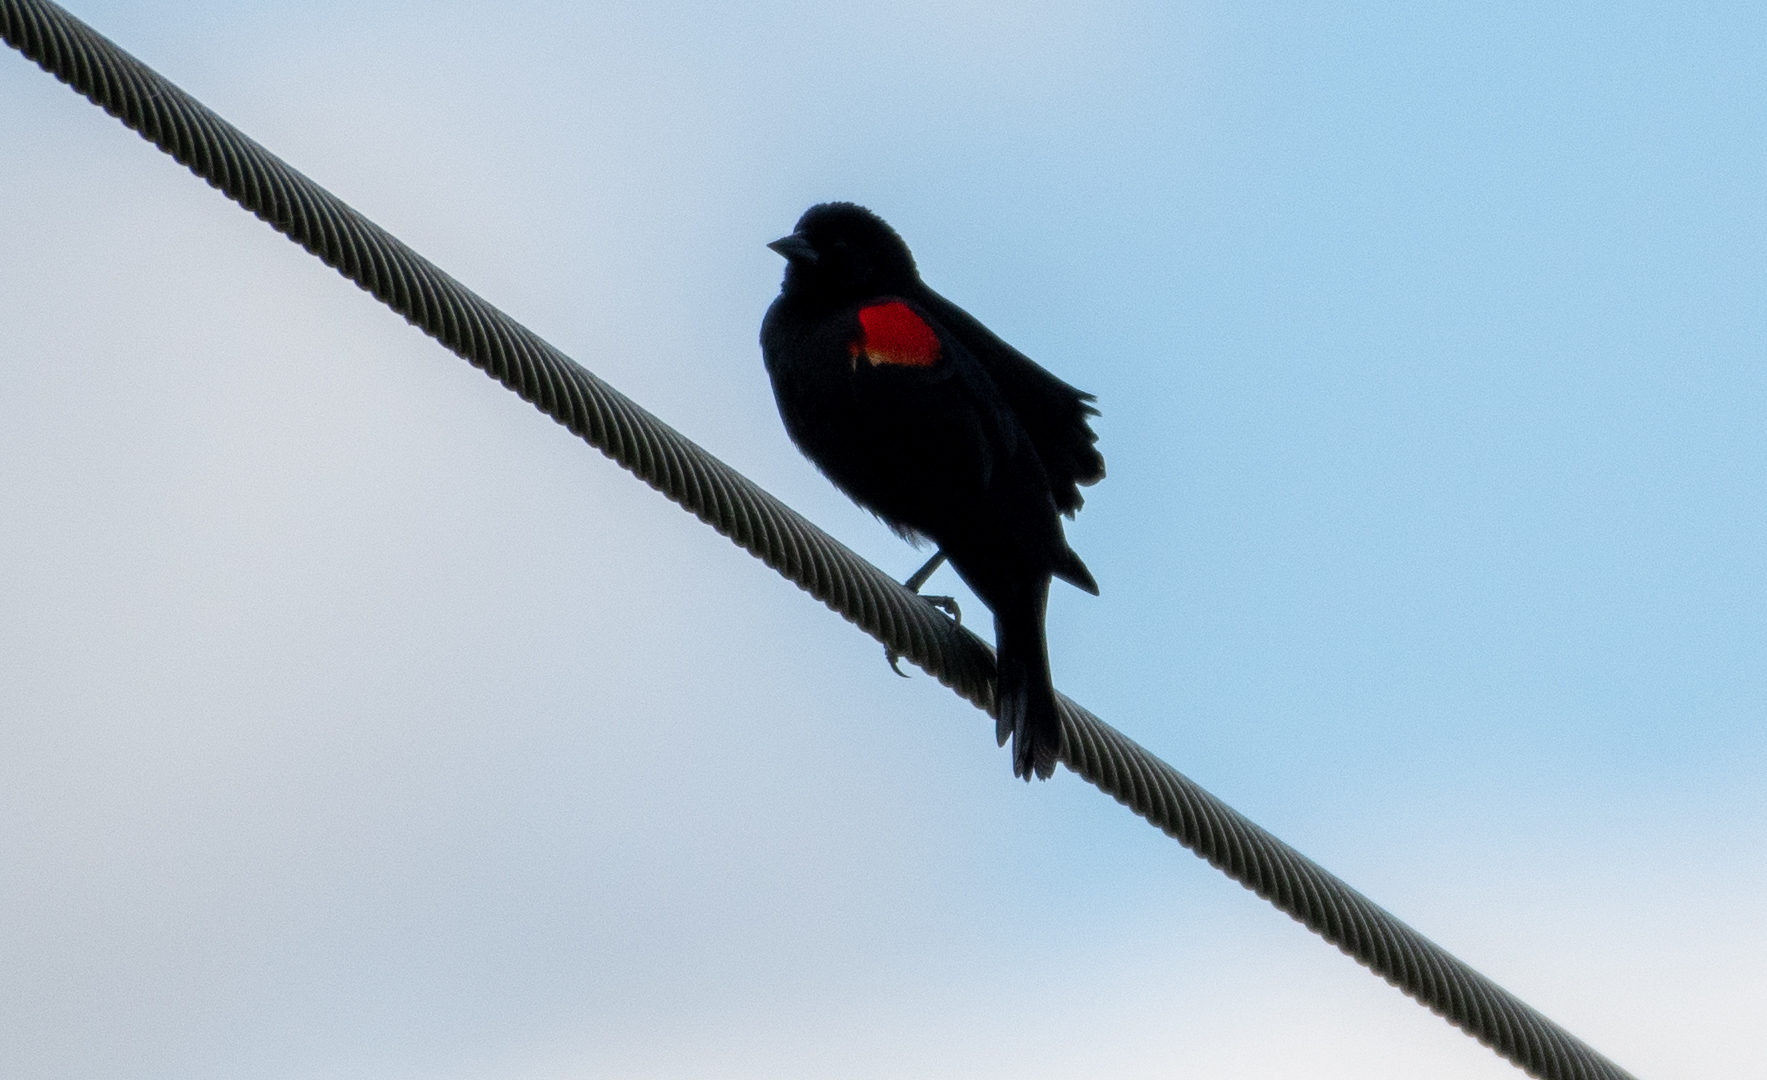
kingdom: Animalia
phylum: Chordata
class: Aves
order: Passeriformes
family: Icteridae
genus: Agelaius
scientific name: Agelaius phoeniceus
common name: Red-winged blackbird
